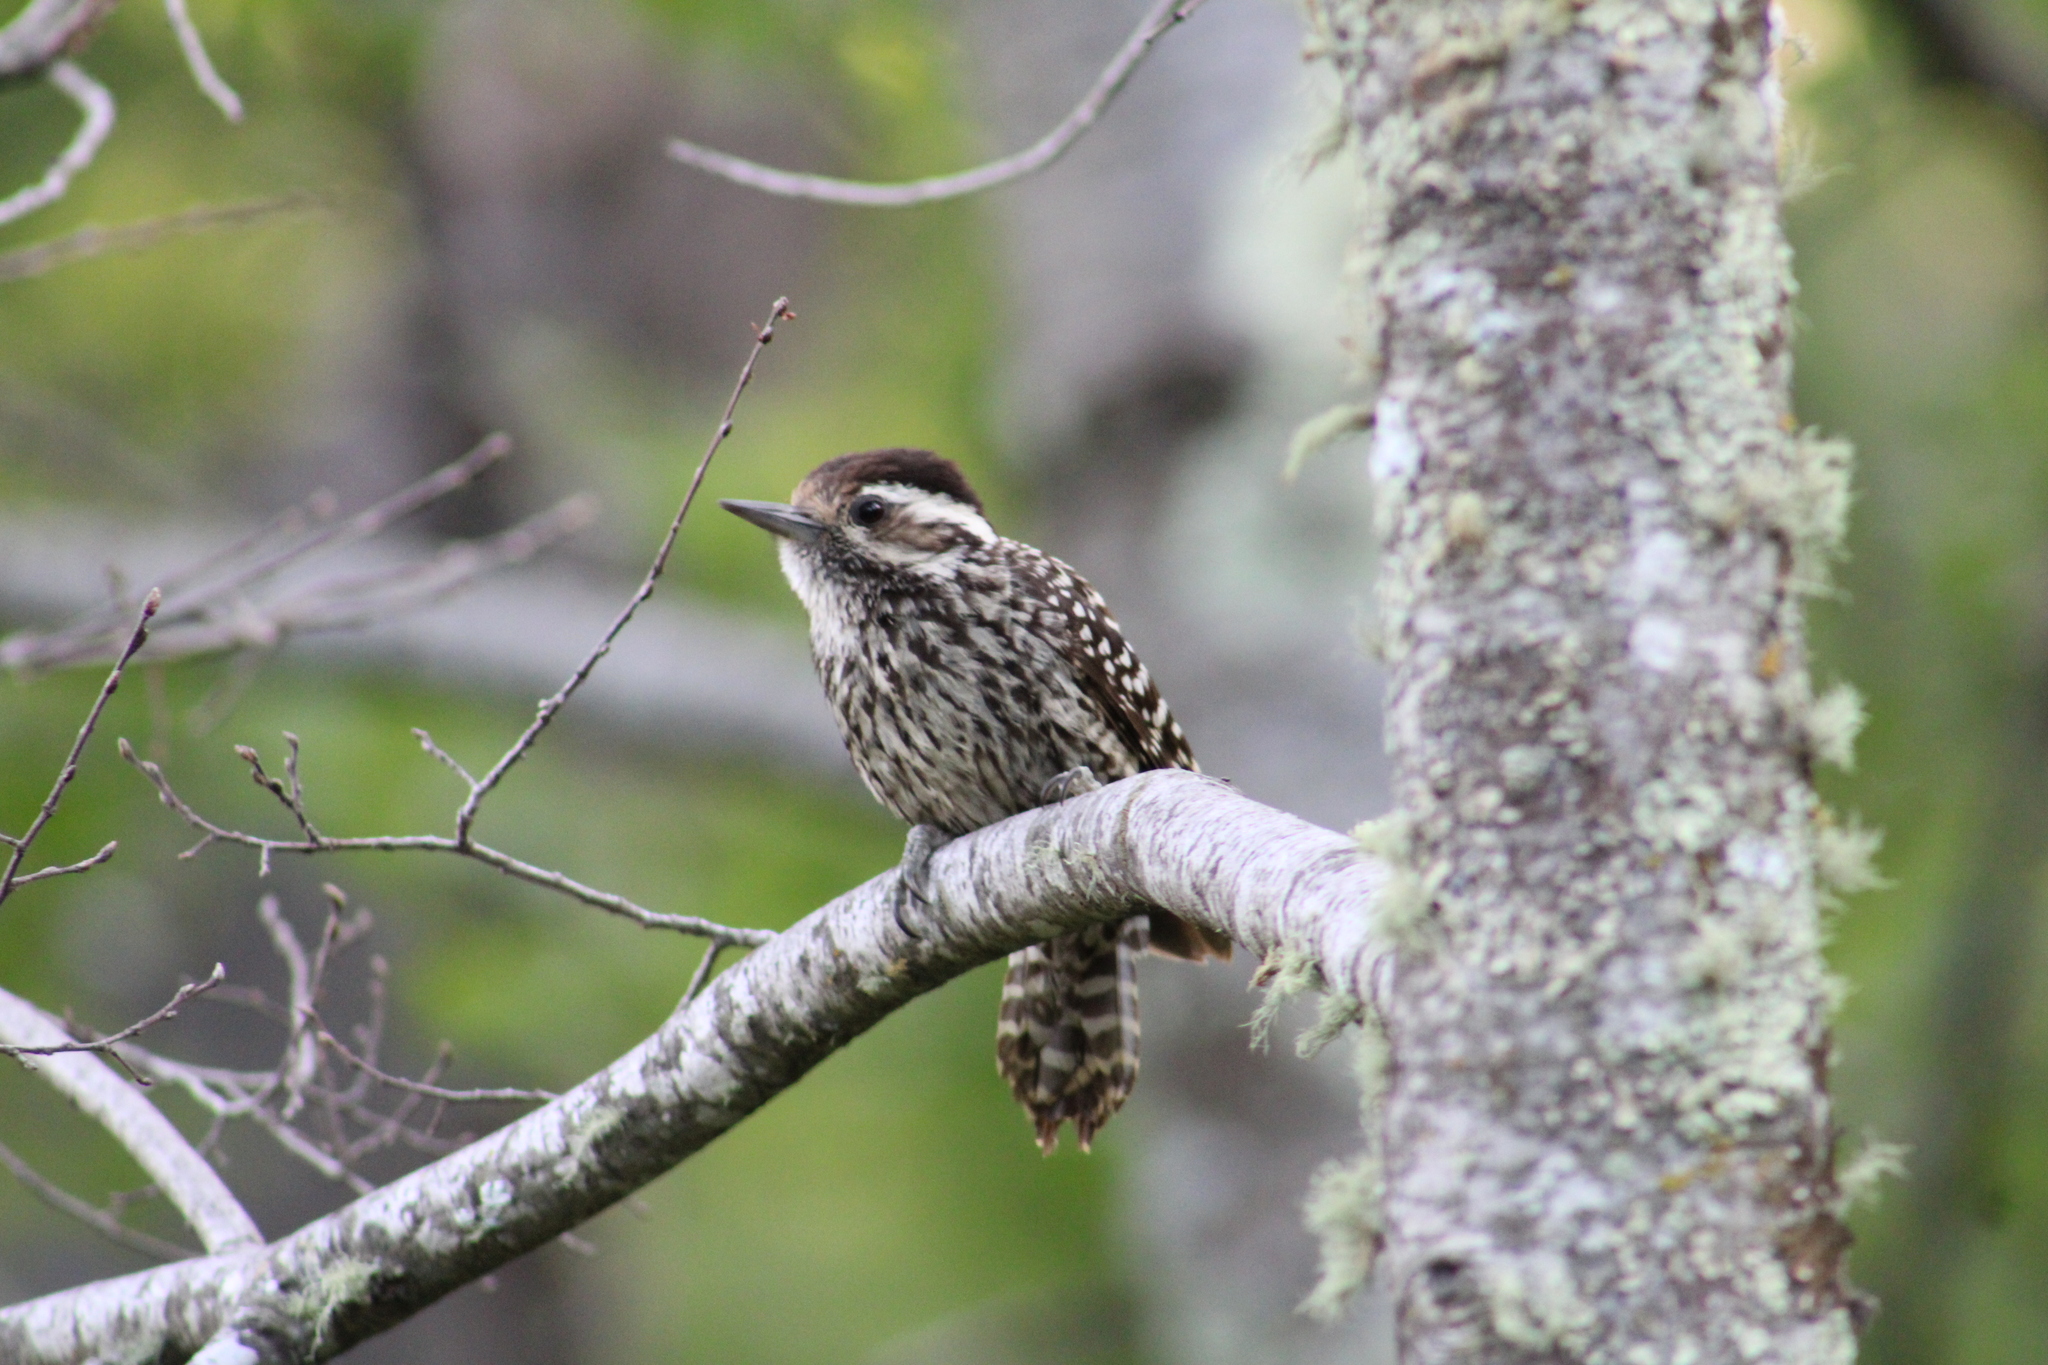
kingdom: Animalia
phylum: Chordata
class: Aves
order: Piciformes
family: Picidae
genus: Veniliornis
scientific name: Veniliornis lignarius
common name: Striped woodpecker
